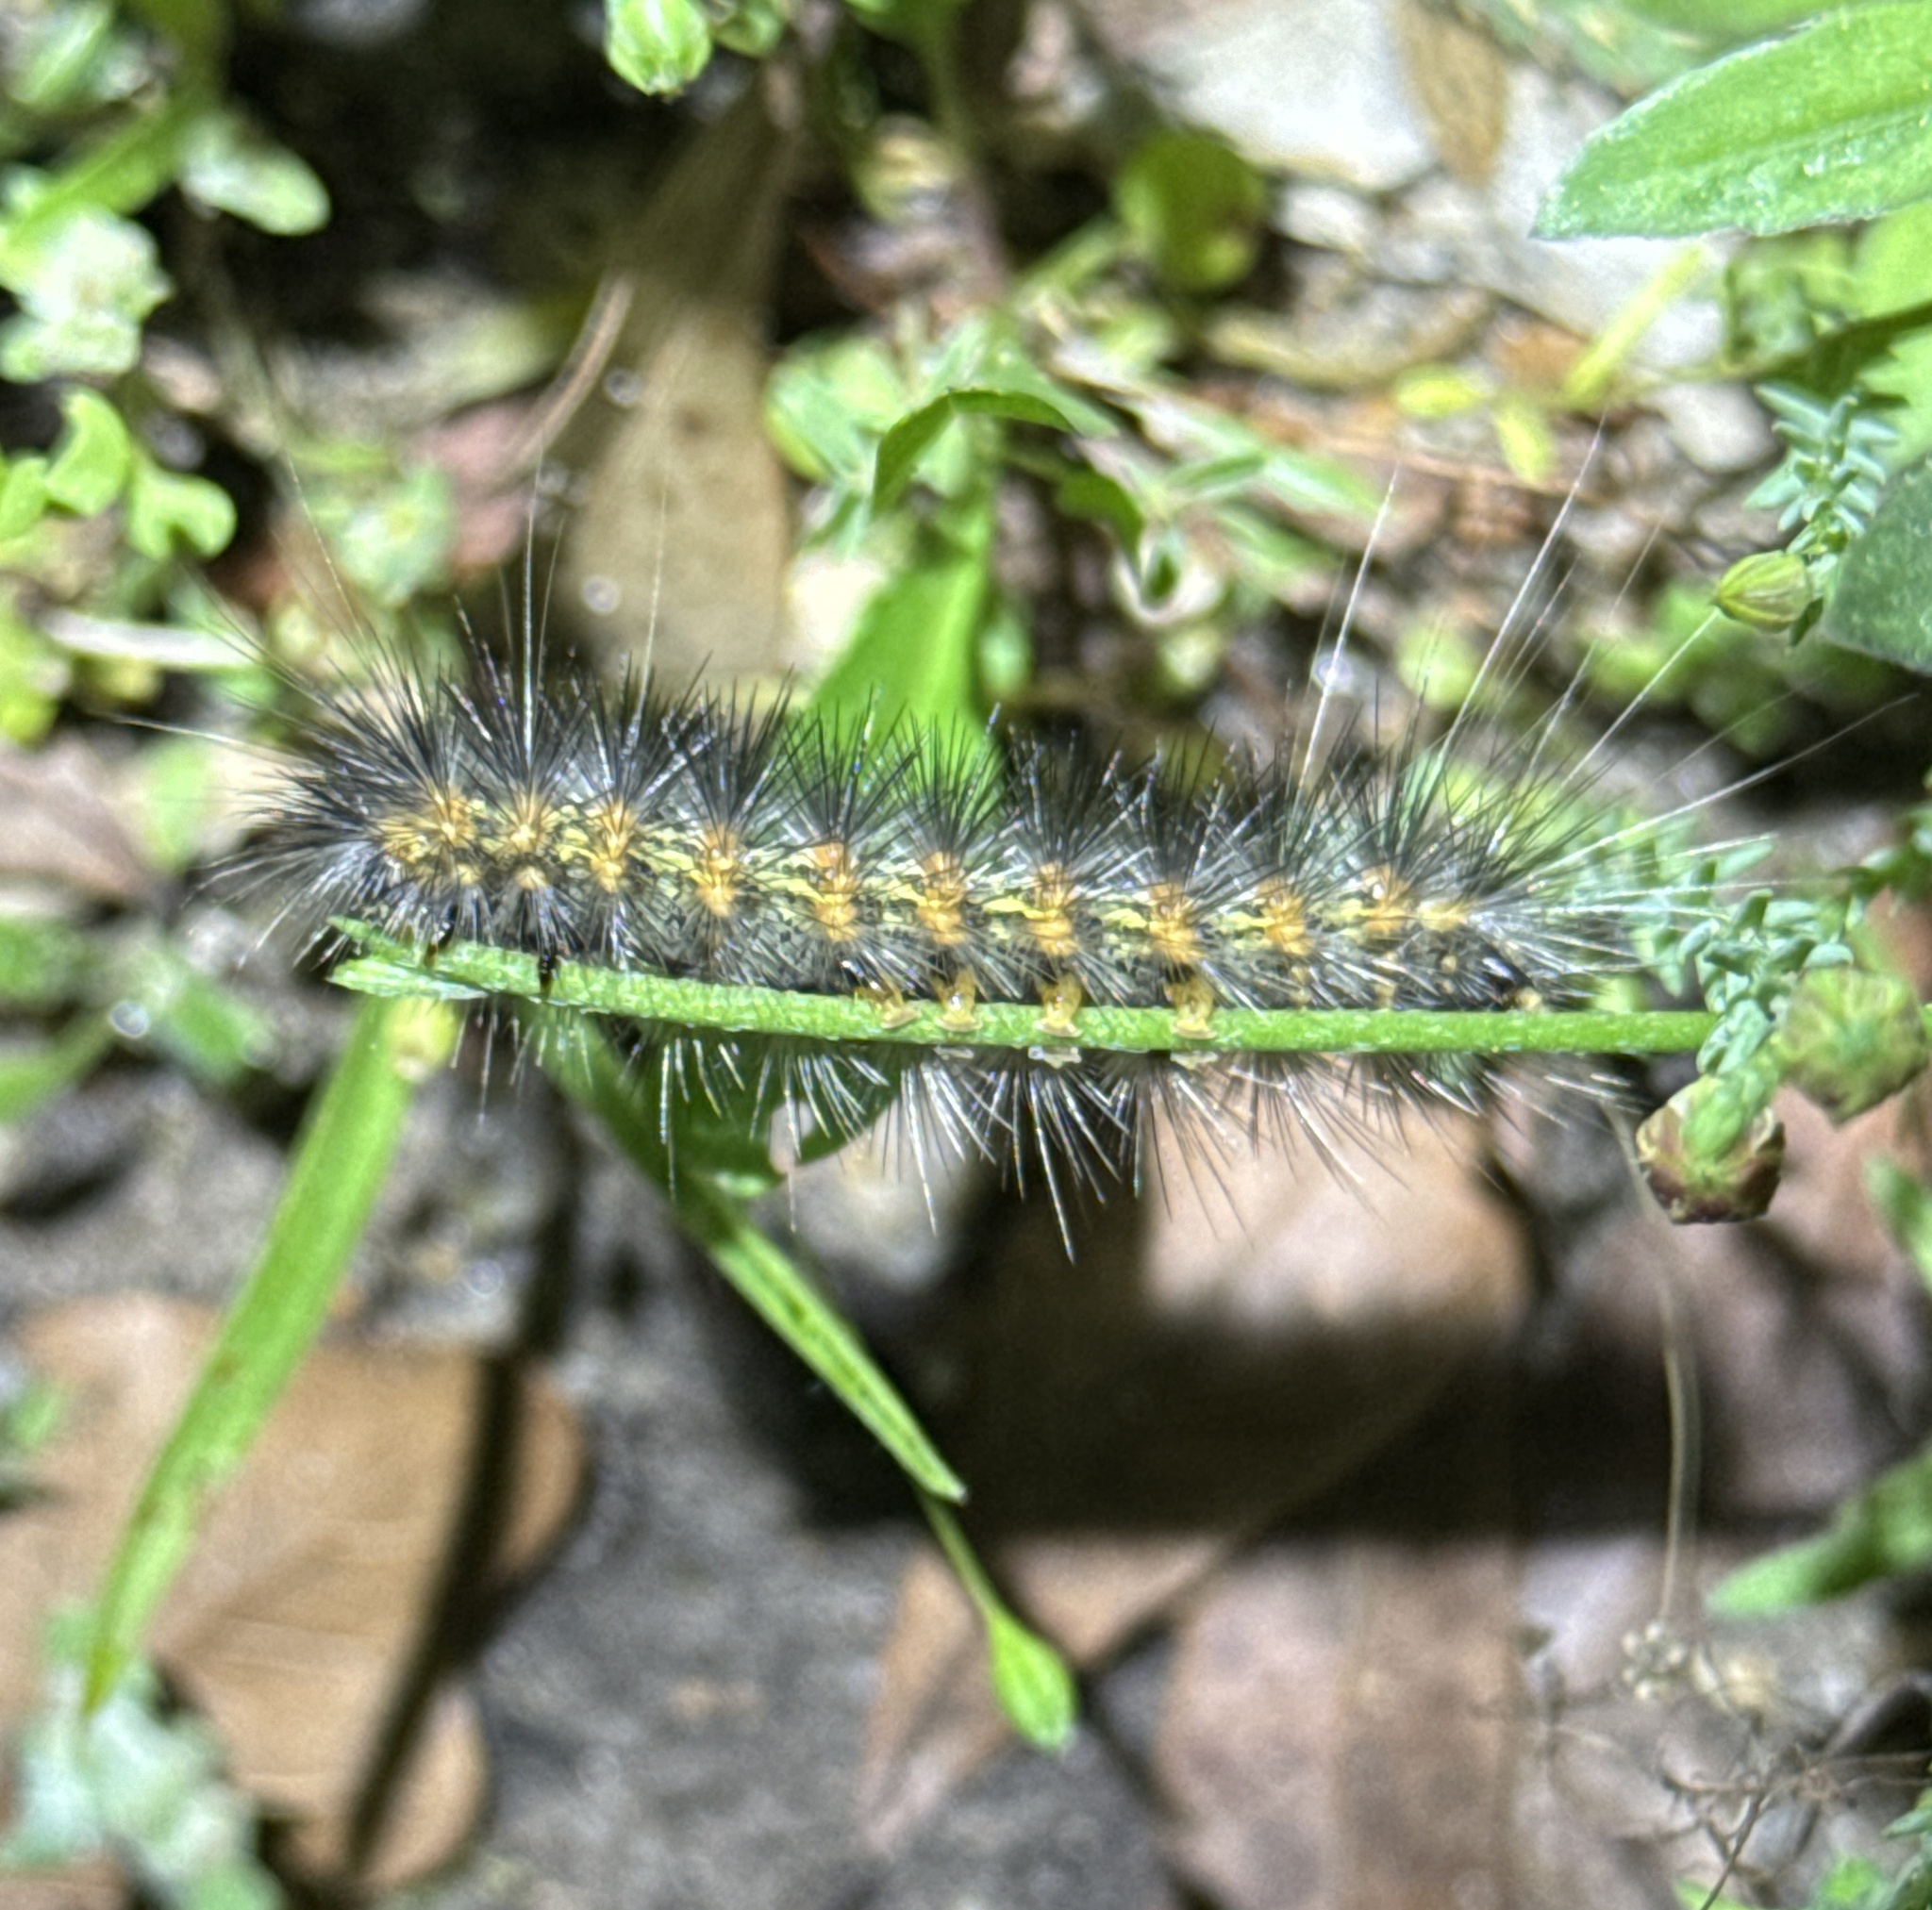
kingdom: Animalia
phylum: Arthropoda
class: Insecta
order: Lepidoptera
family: Erebidae
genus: Estigmene
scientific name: Estigmene acrea
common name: Salt marsh moth
